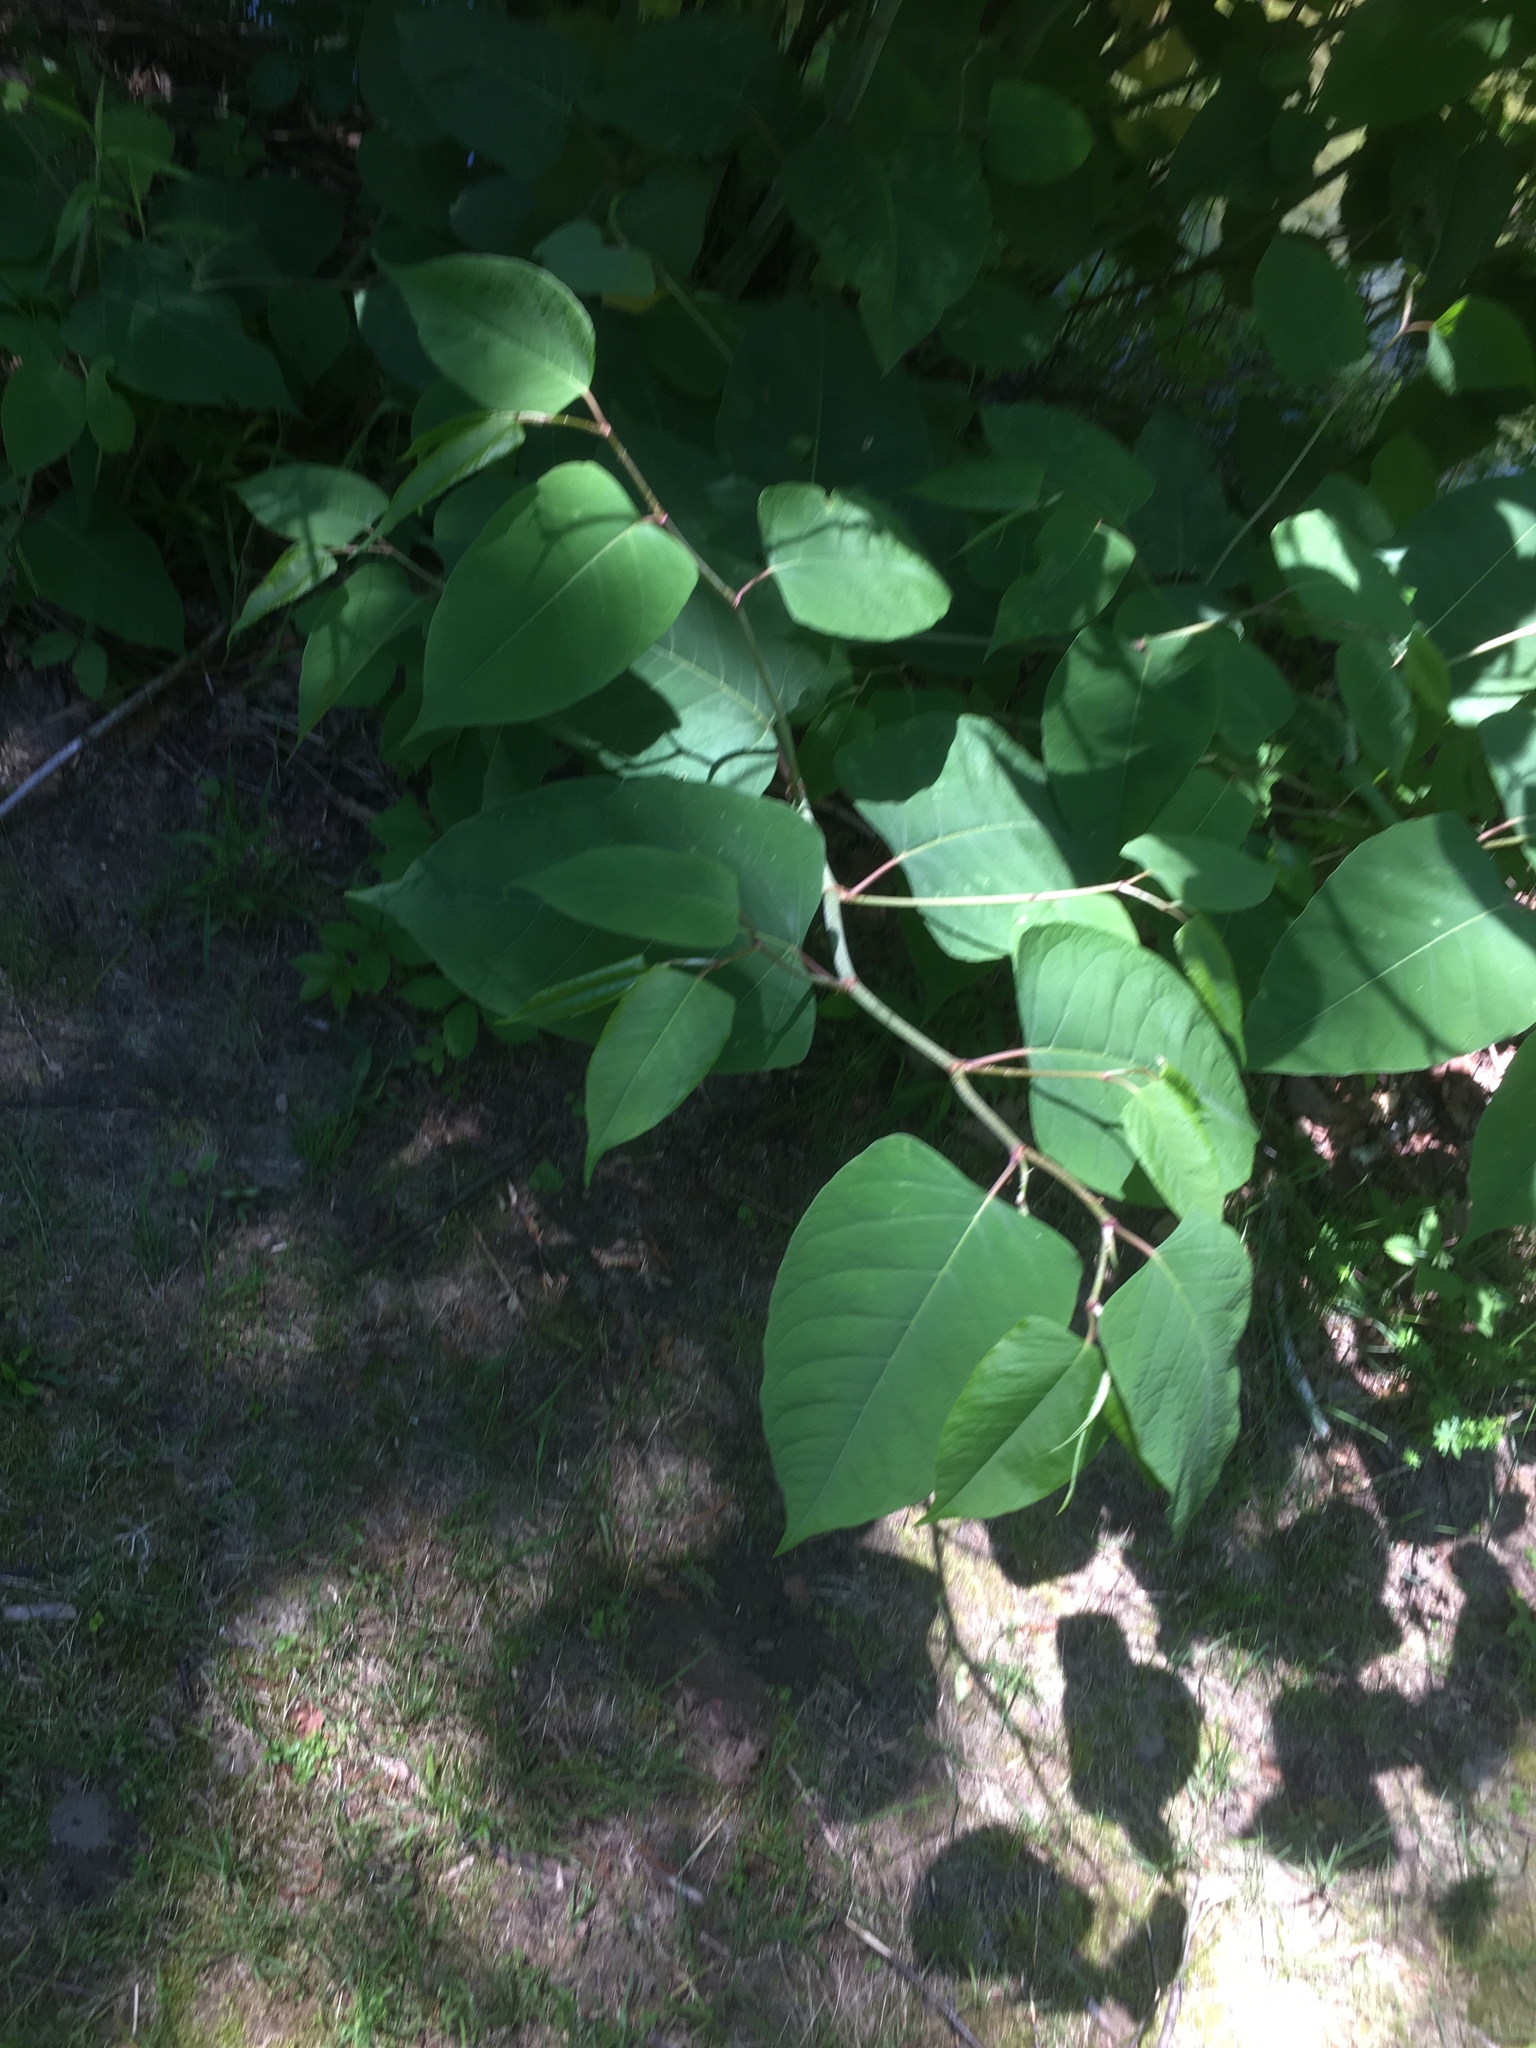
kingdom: Plantae
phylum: Tracheophyta
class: Magnoliopsida
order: Caryophyllales
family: Polygonaceae
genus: Reynoutria
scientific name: Reynoutria sachalinensis
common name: Giant knotweed
